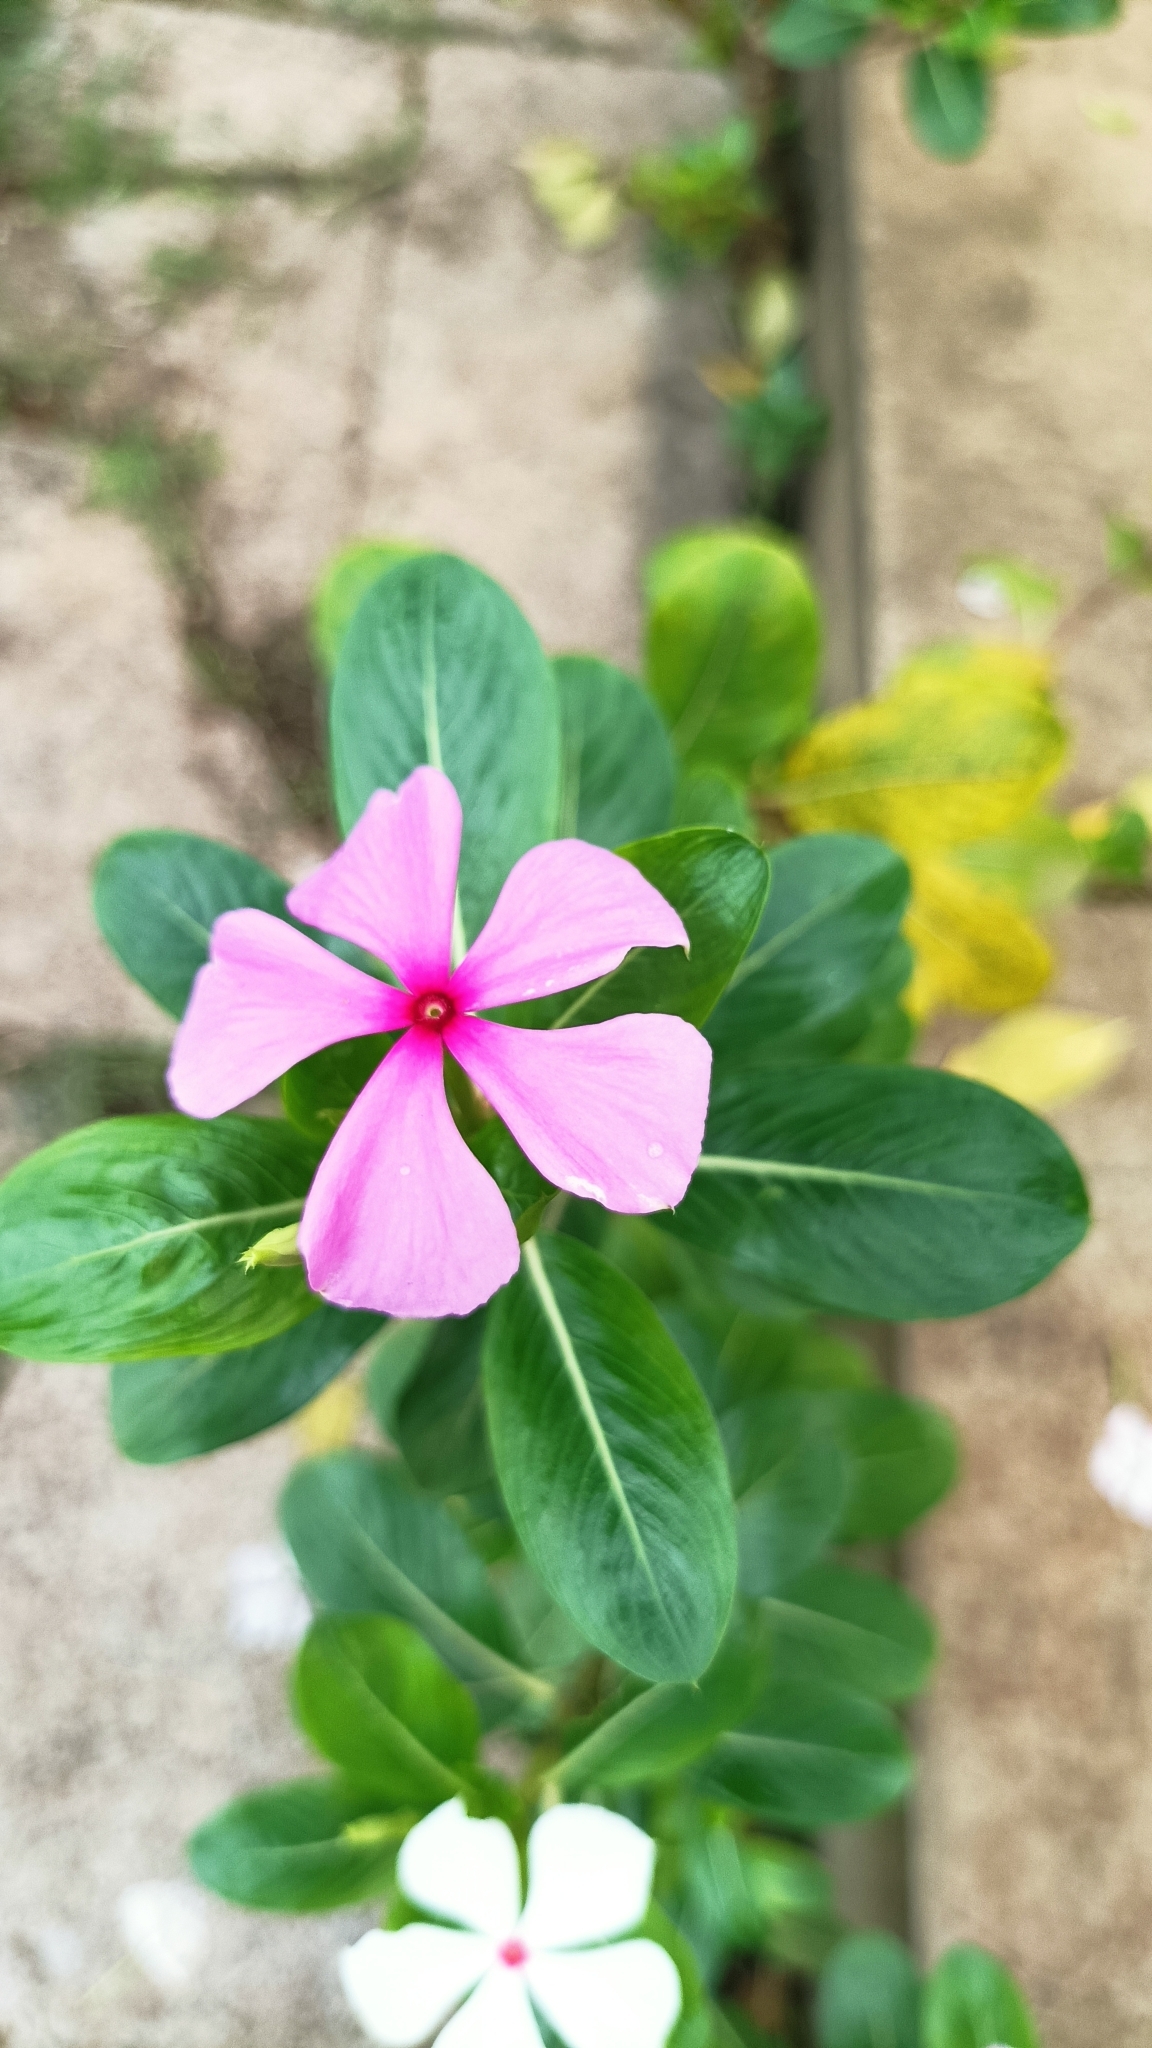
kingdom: Plantae
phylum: Tracheophyta
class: Magnoliopsida
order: Gentianales
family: Apocynaceae
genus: Catharanthus
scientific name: Catharanthus roseus
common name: Madagascar periwinkle
